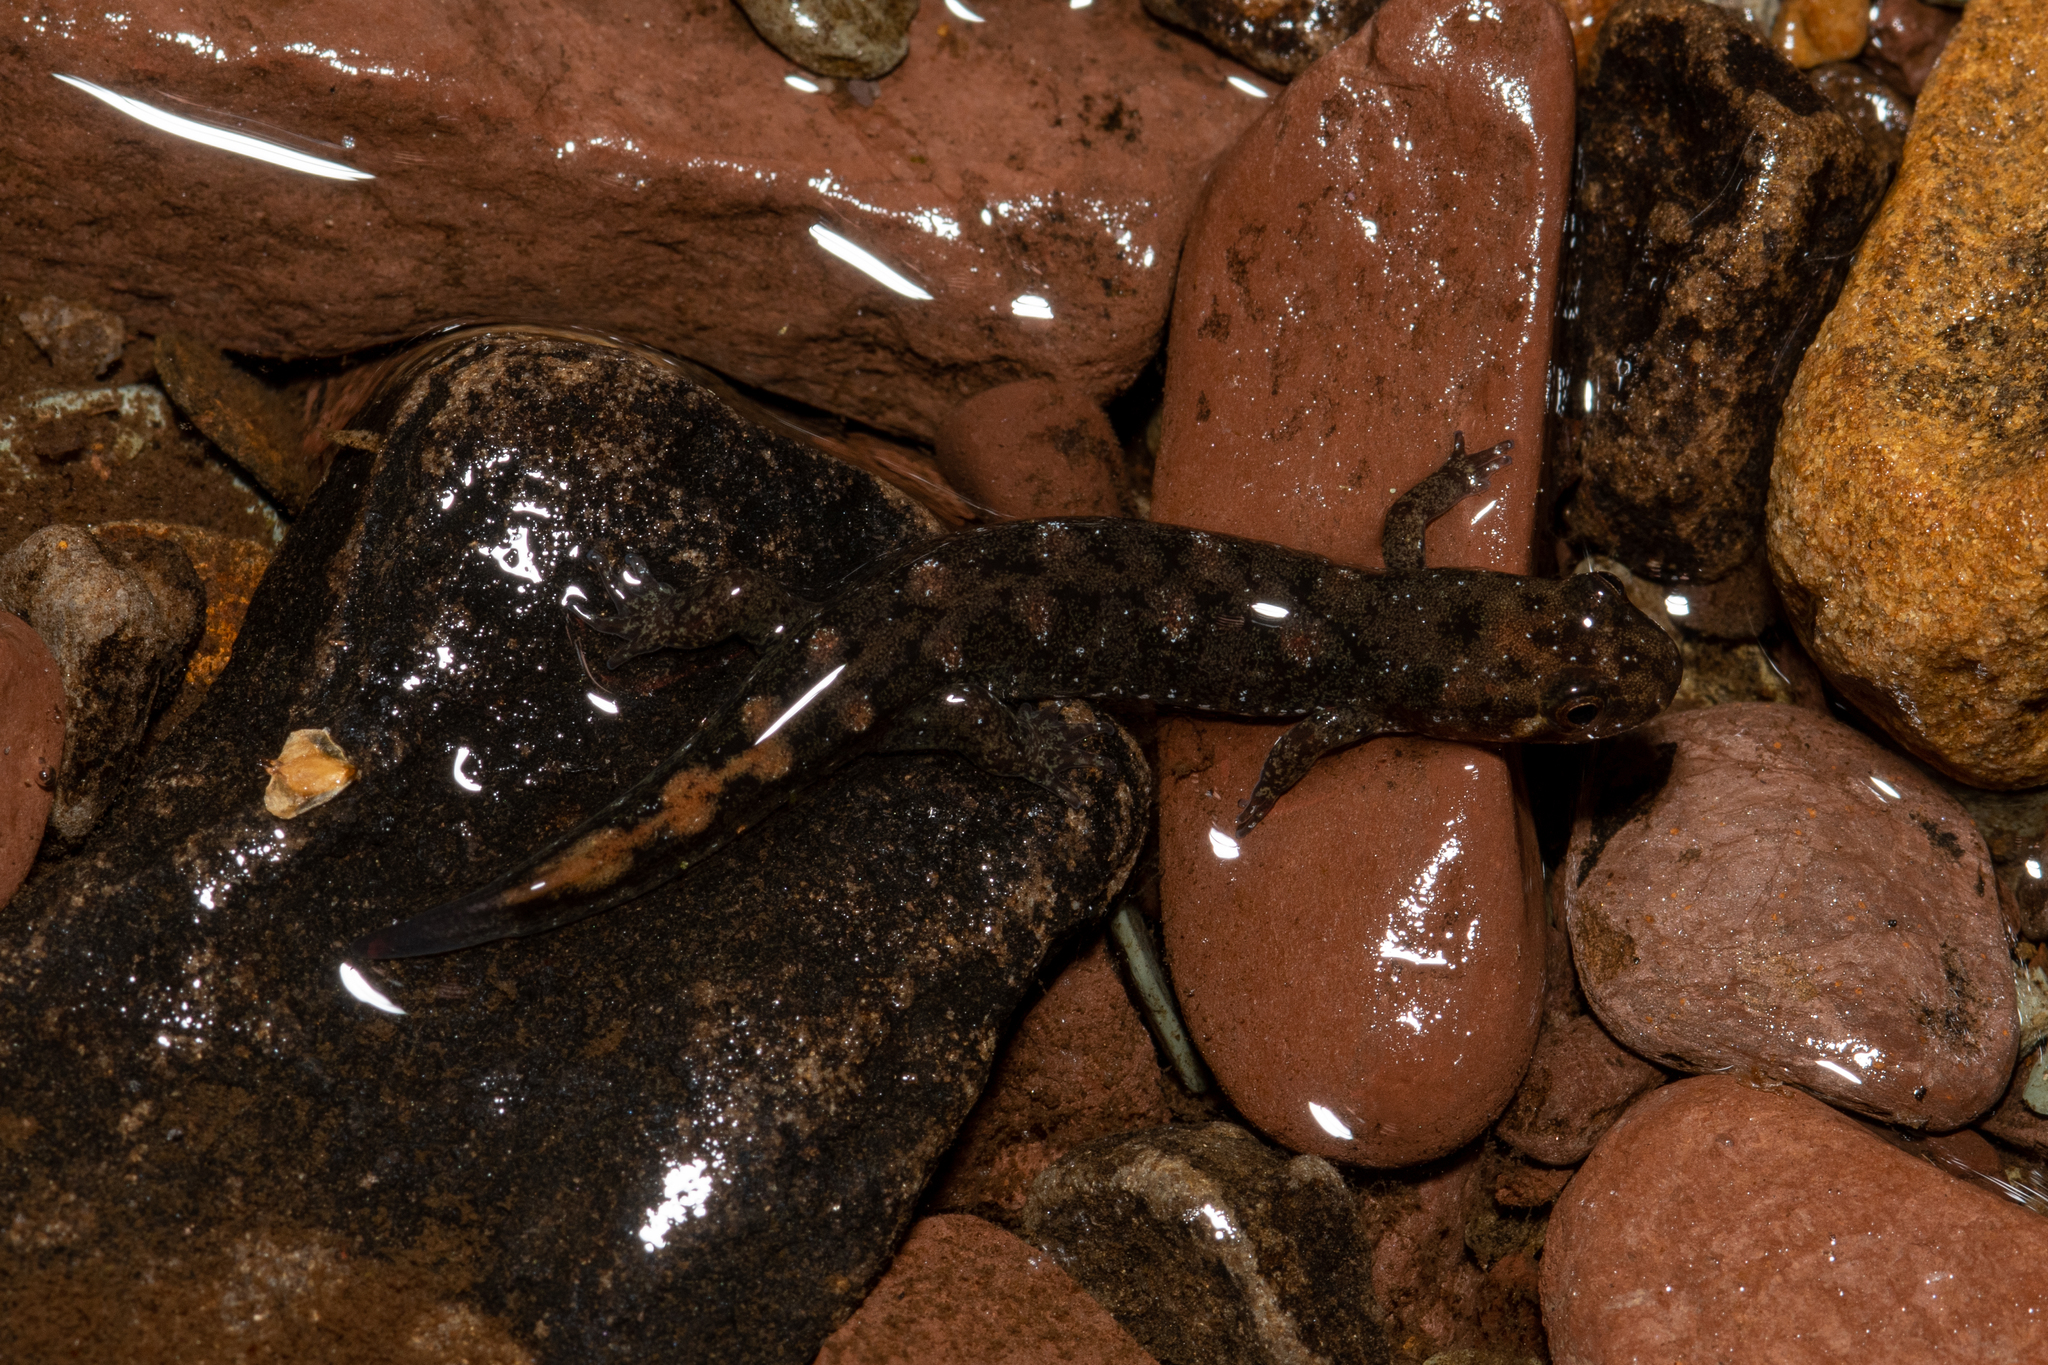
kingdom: Animalia
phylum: Chordata
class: Amphibia
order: Caudata
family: Plethodontidae
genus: Desmognathus
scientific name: Desmognathus monticola
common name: Seal salamander
